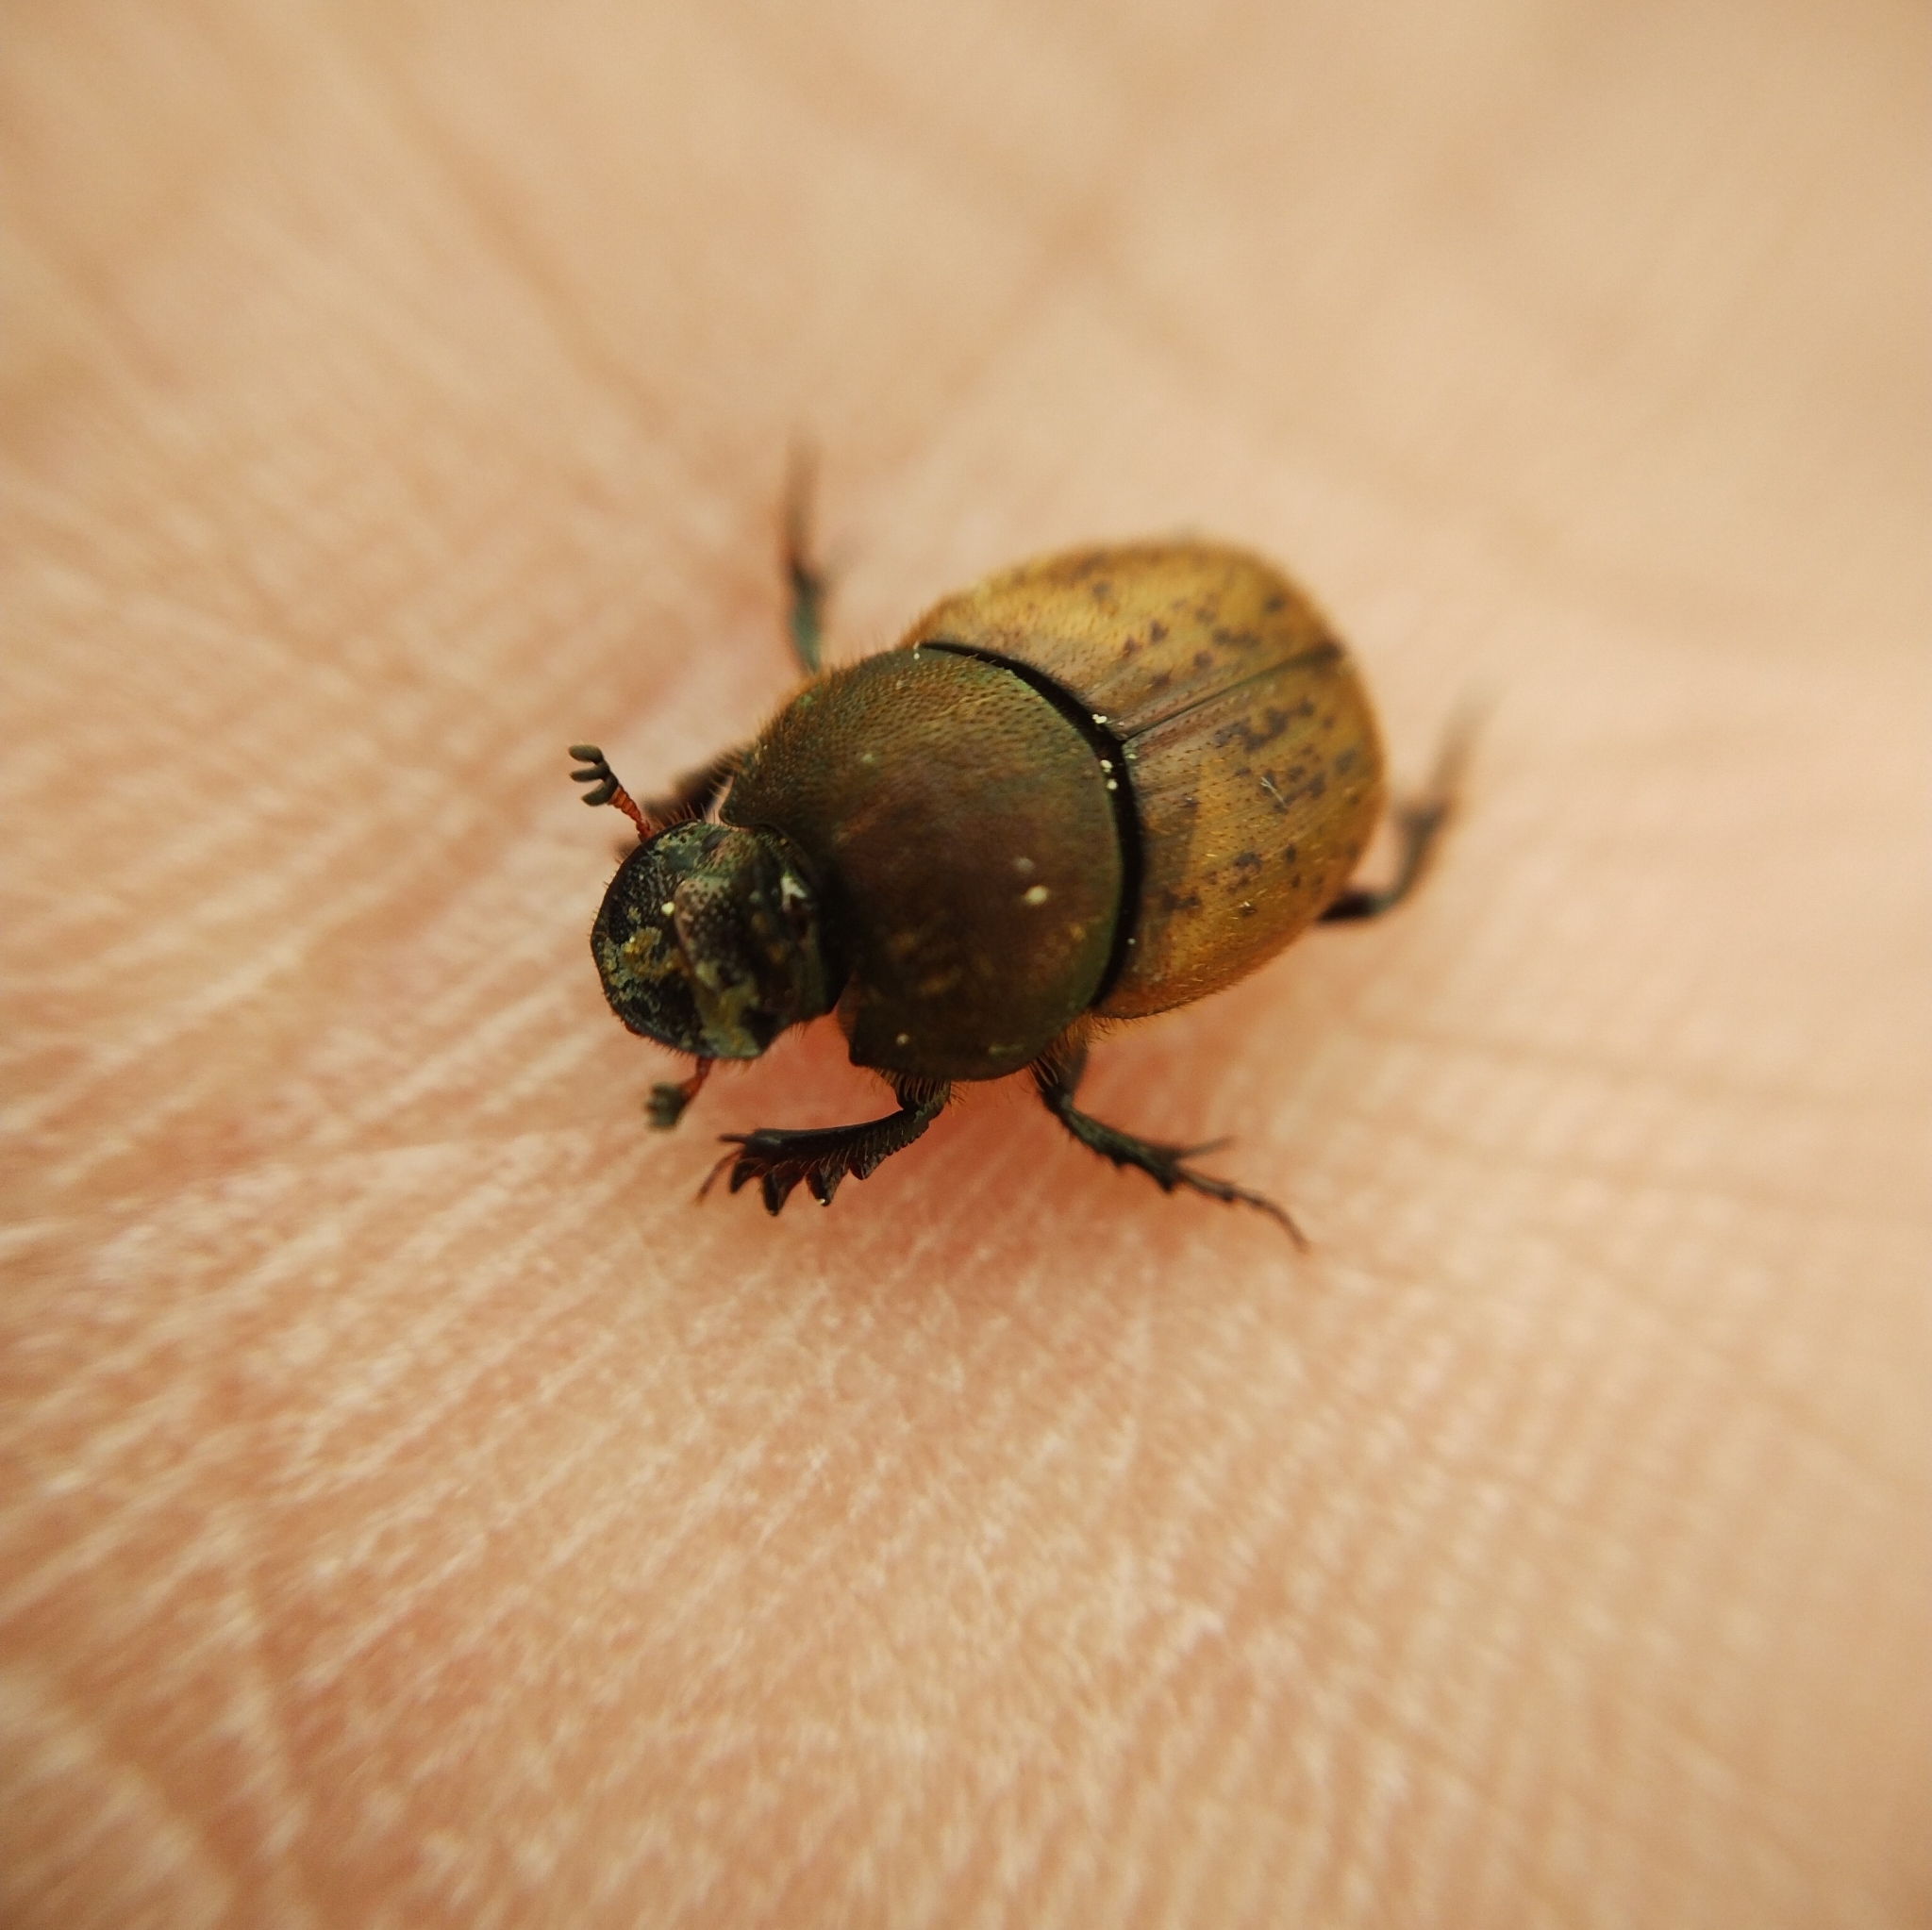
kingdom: Animalia
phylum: Arthropoda
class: Insecta
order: Coleoptera
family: Scarabaeidae
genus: Onthophagus
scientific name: Onthophagus coenobita
